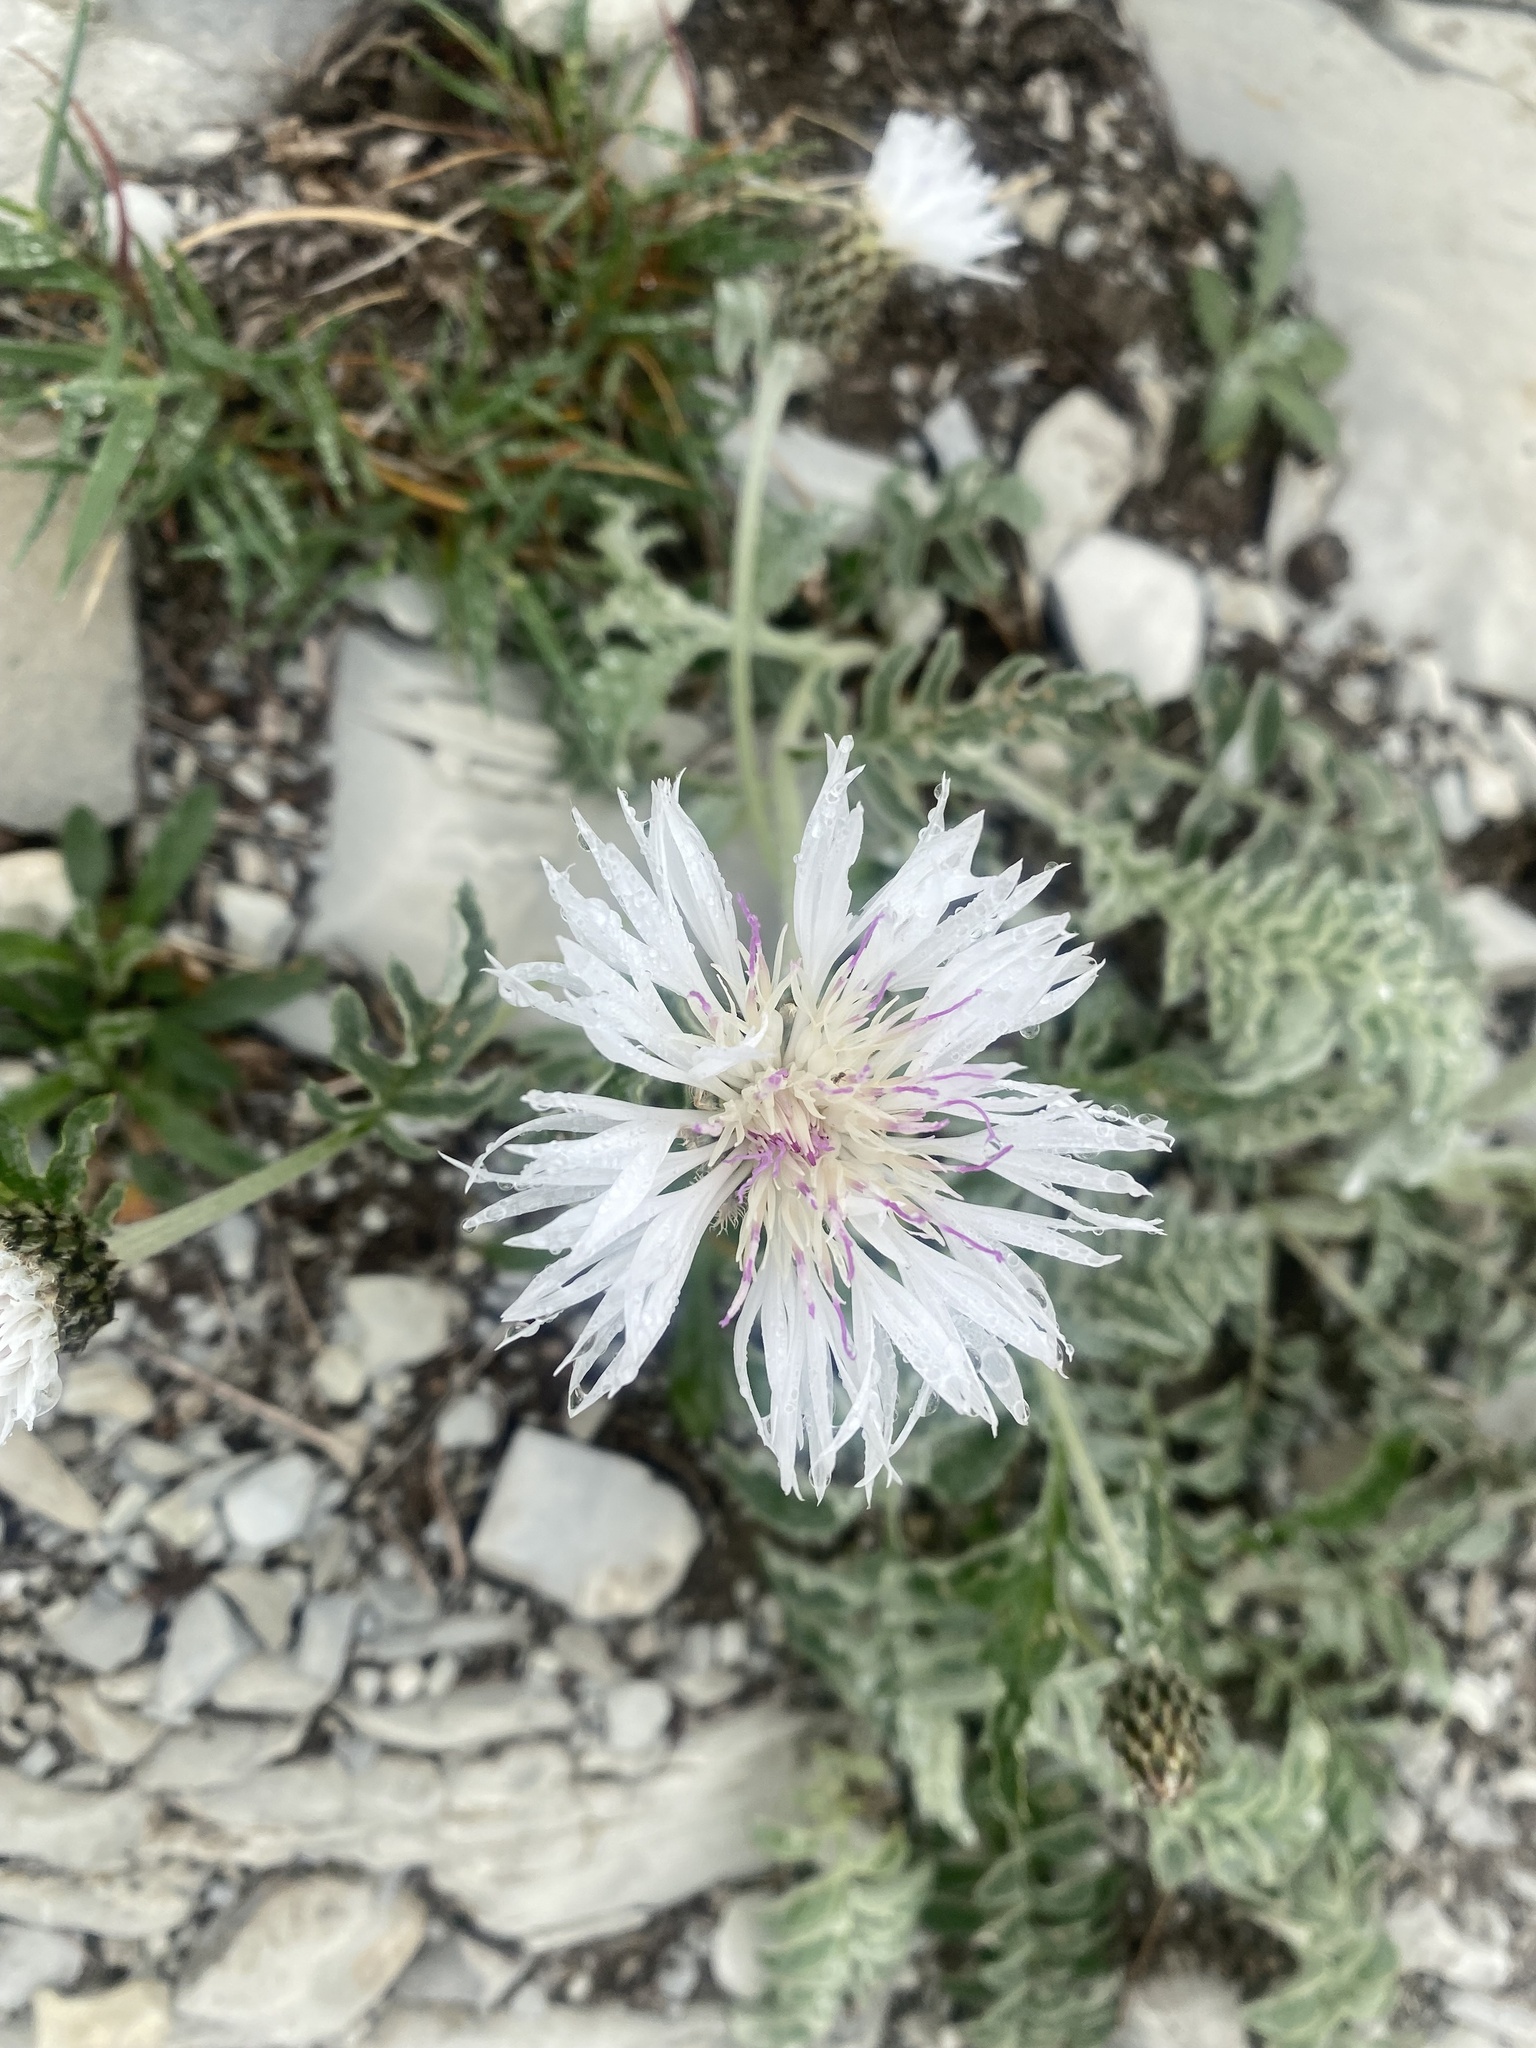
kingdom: Plantae
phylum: Tracheophyta
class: Magnoliopsida
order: Asterales
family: Asteraceae
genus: Psephellus
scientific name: Psephellus declinatus
